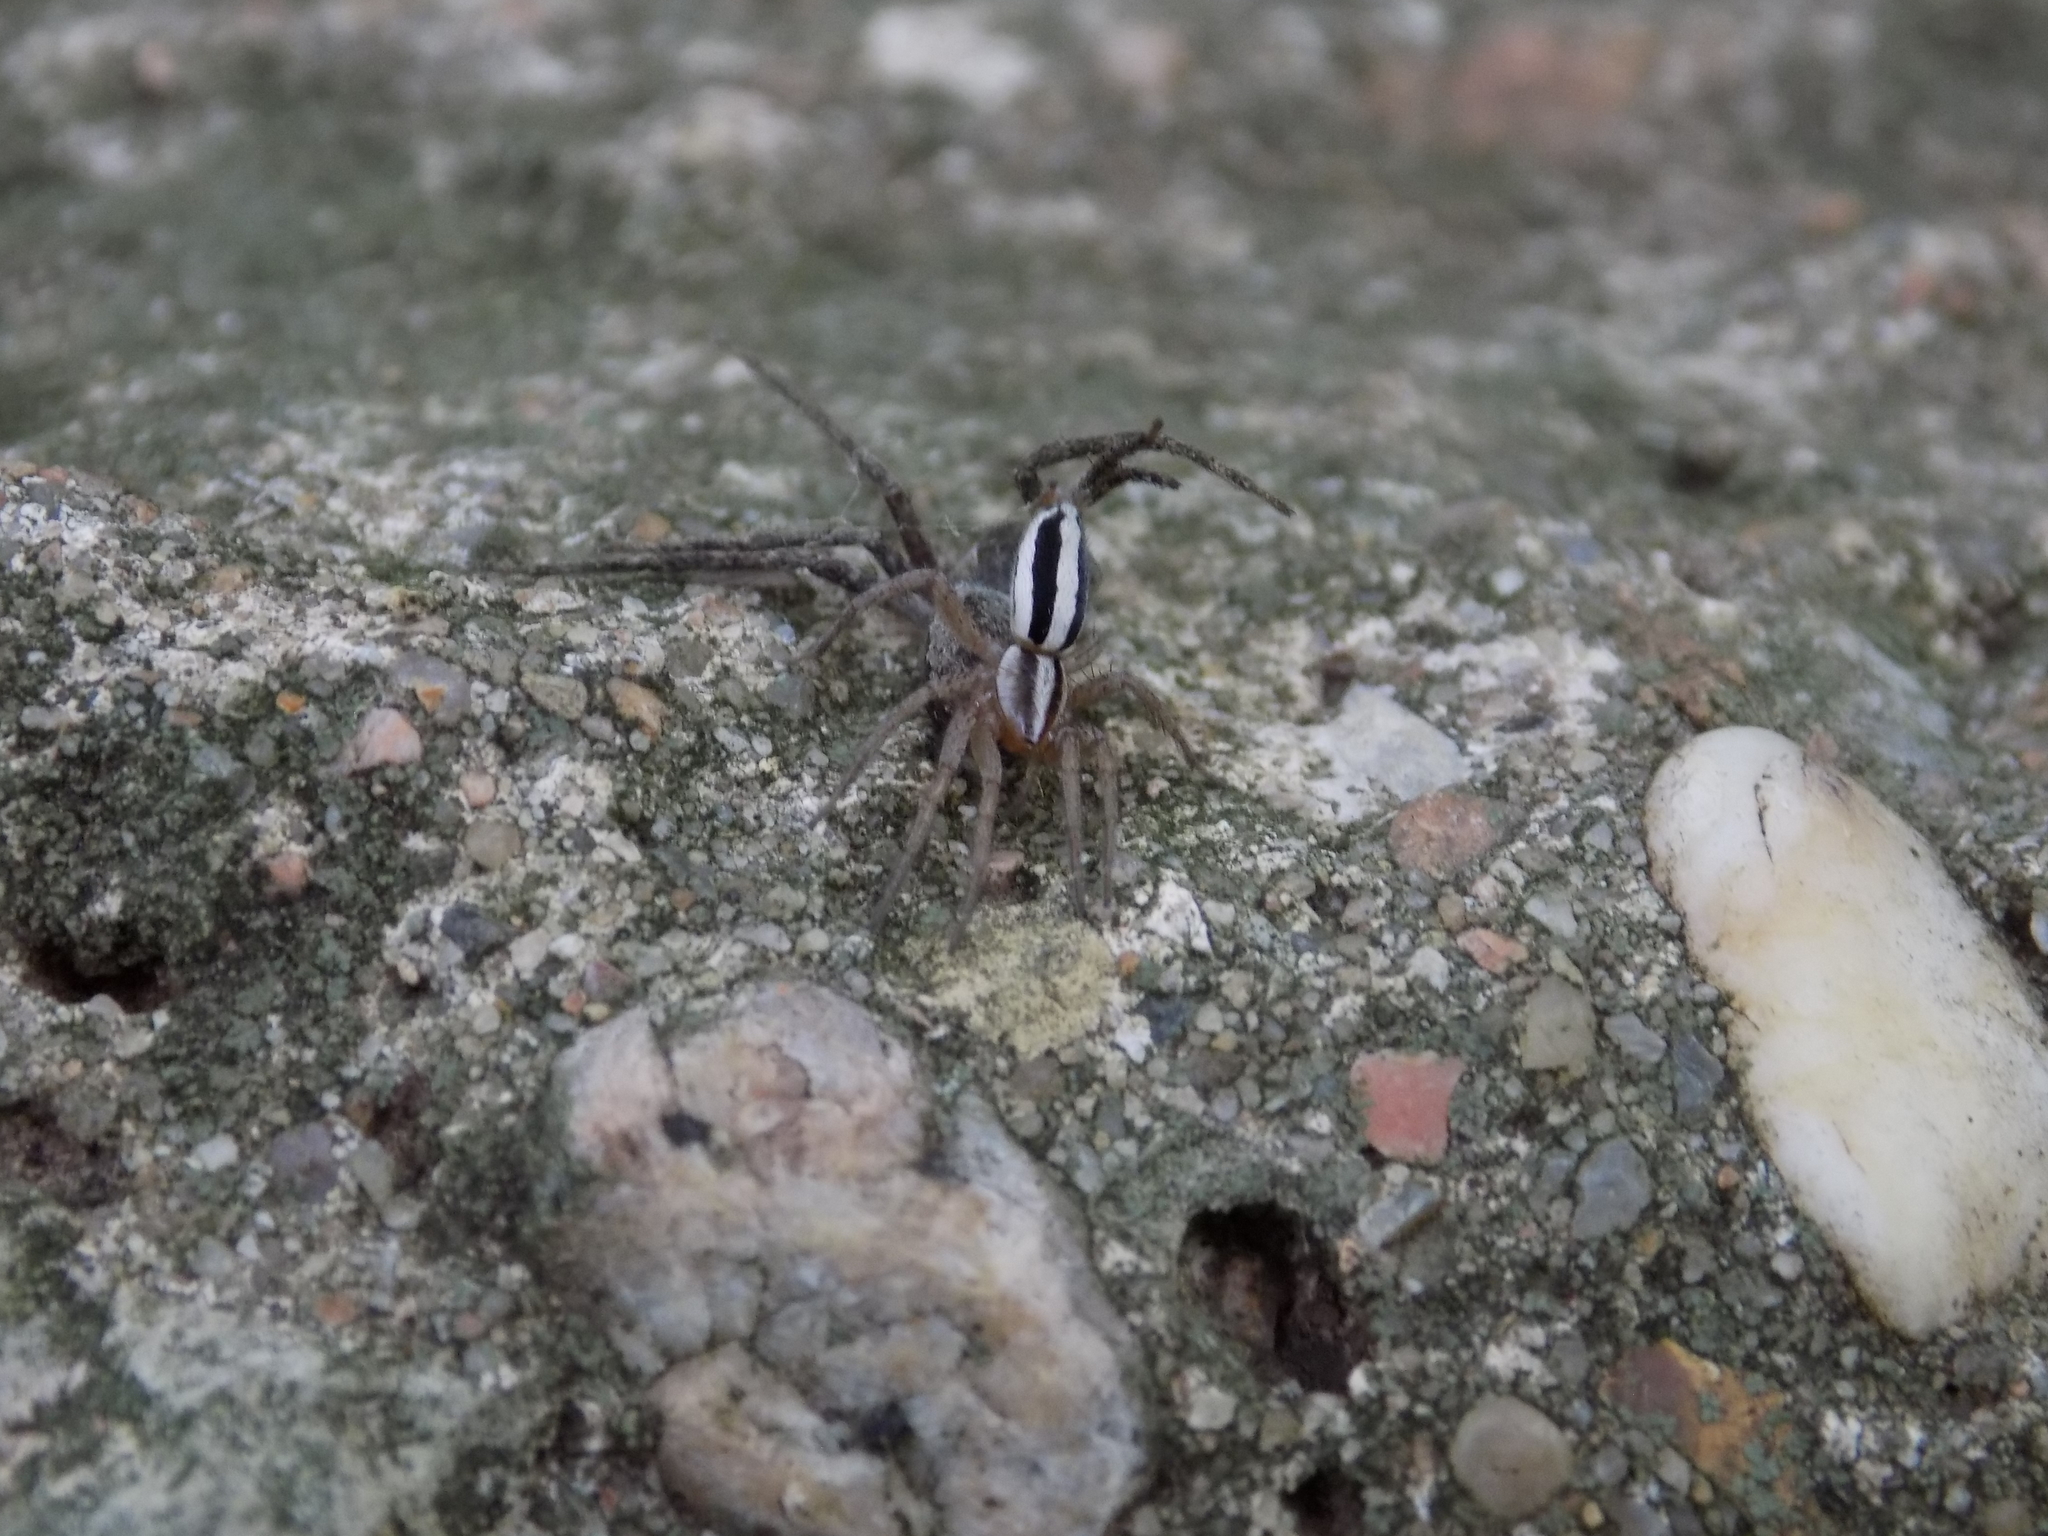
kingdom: Animalia
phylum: Arthropoda
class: Arachnida
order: Araneae
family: Gnaphosidae
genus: Cesonia
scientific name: Cesonia bilineata
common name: Two-lined stealthy ground spider
